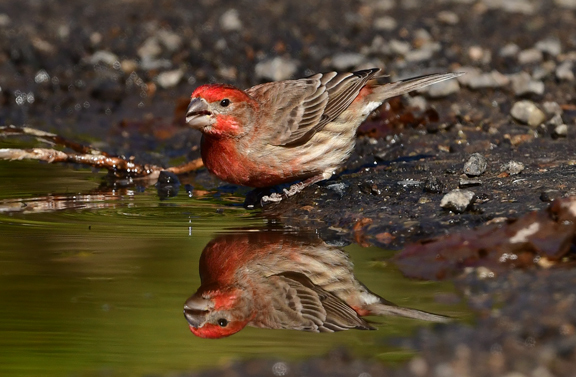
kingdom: Animalia
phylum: Chordata
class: Aves
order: Passeriformes
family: Fringillidae
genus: Haemorhous
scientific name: Haemorhous mexicanus
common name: House finch
